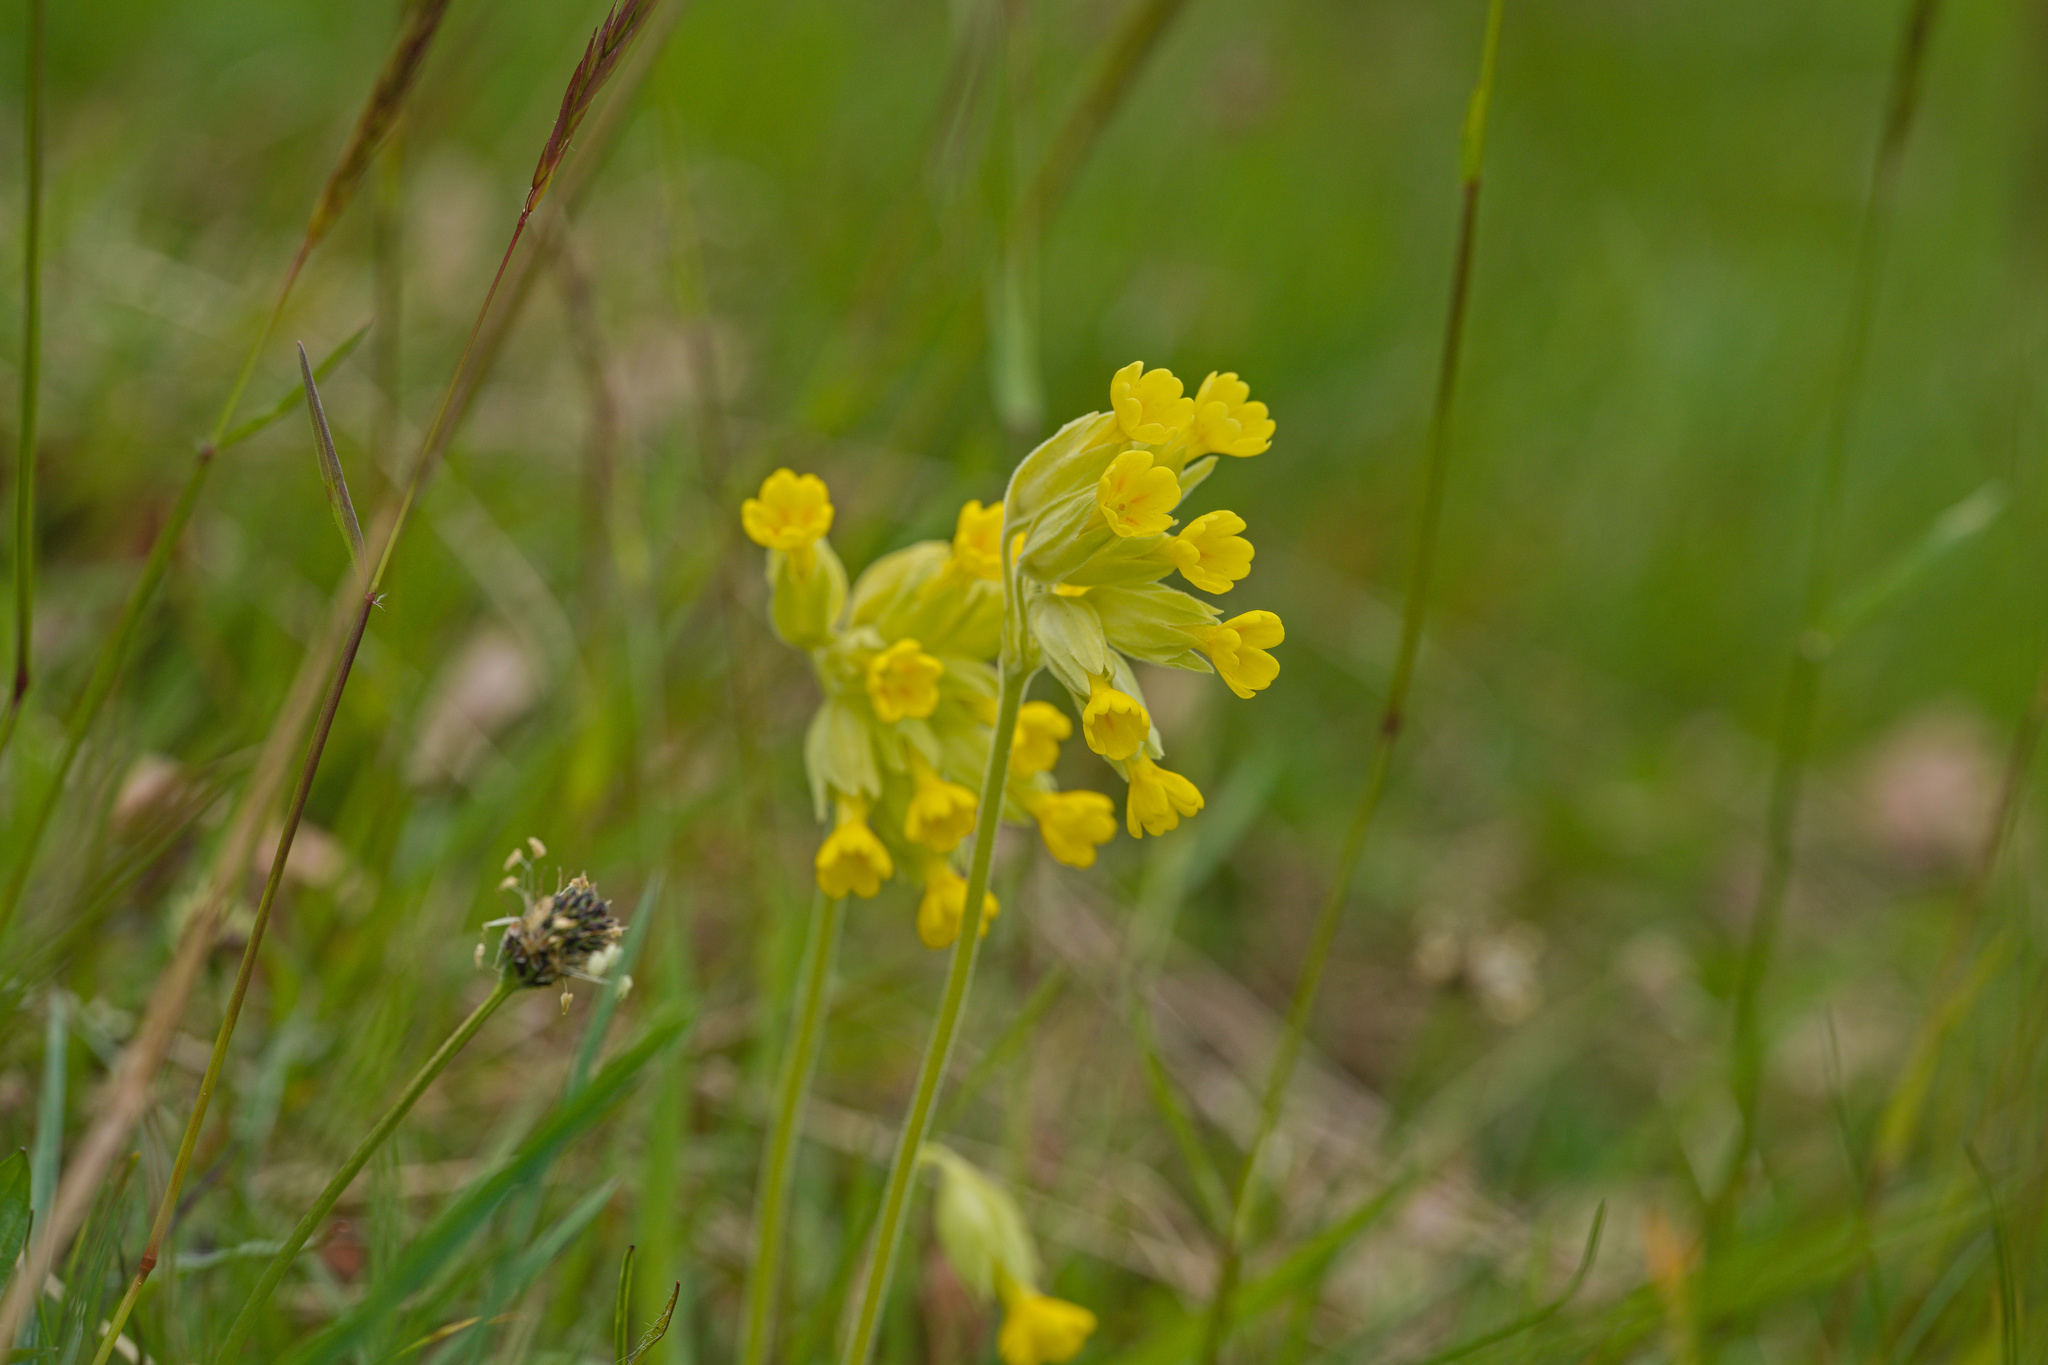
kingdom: Plantae
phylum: Tracheophyta
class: Magnoliopsida
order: Ericales
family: Primulaceae
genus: Primula
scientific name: Primula veris
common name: Cowslip
